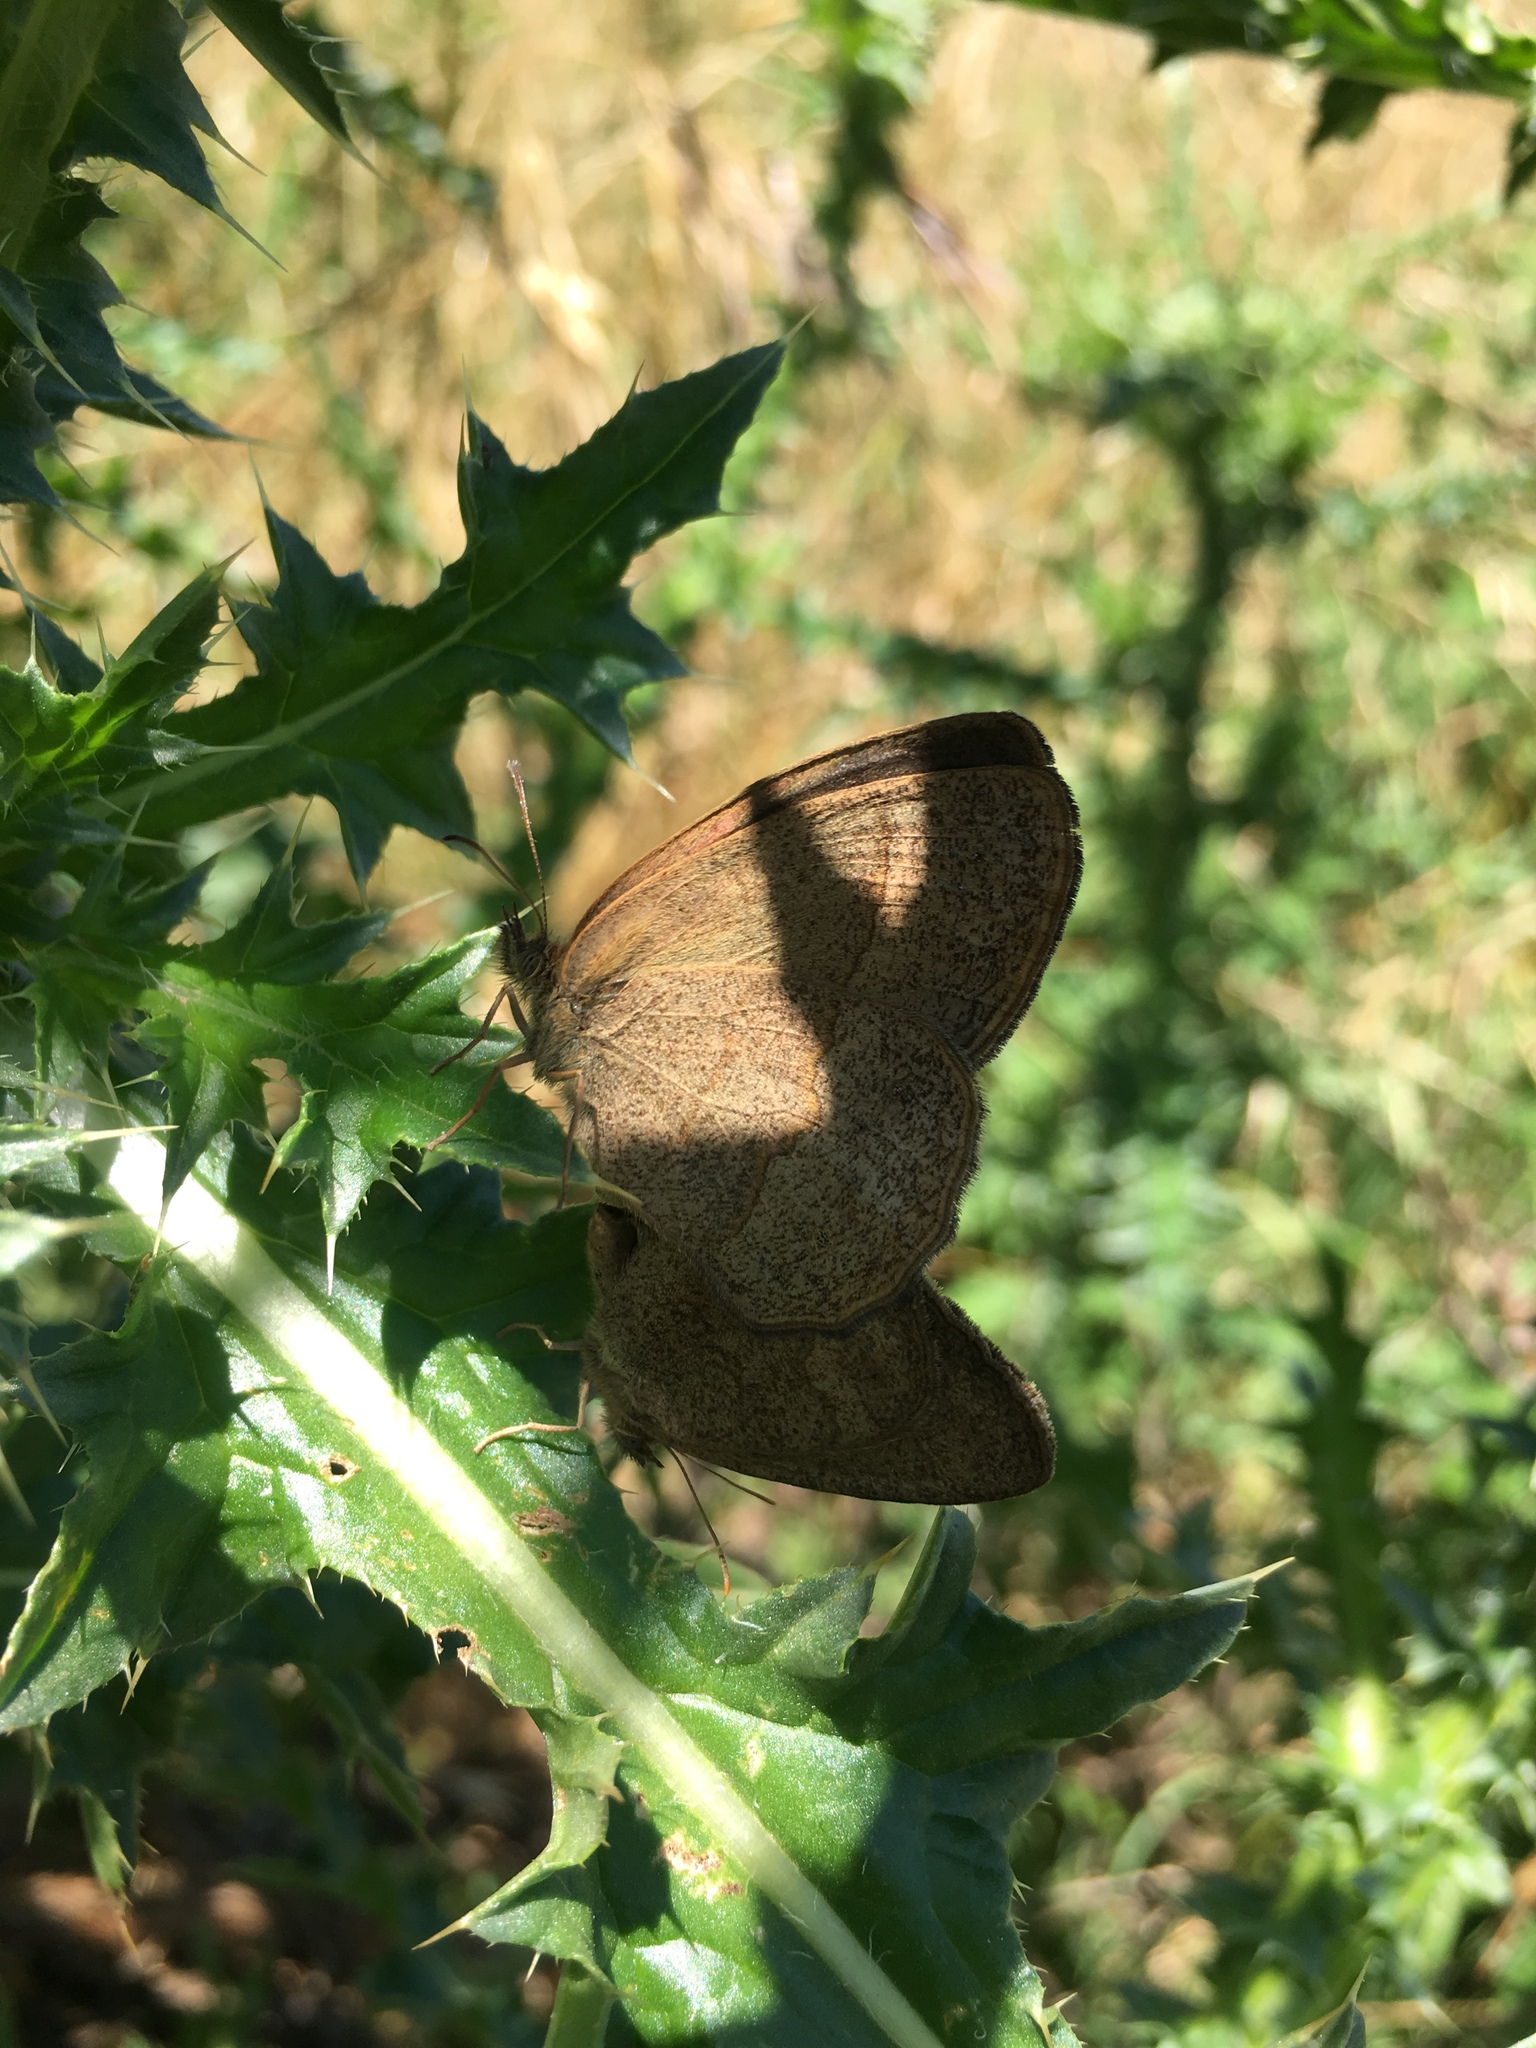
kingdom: Animalia
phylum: Arthropoda
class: Insecta
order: Lepidoptera
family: Nymphalidae
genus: Yphthimoides
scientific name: Yphthimoides celmis
